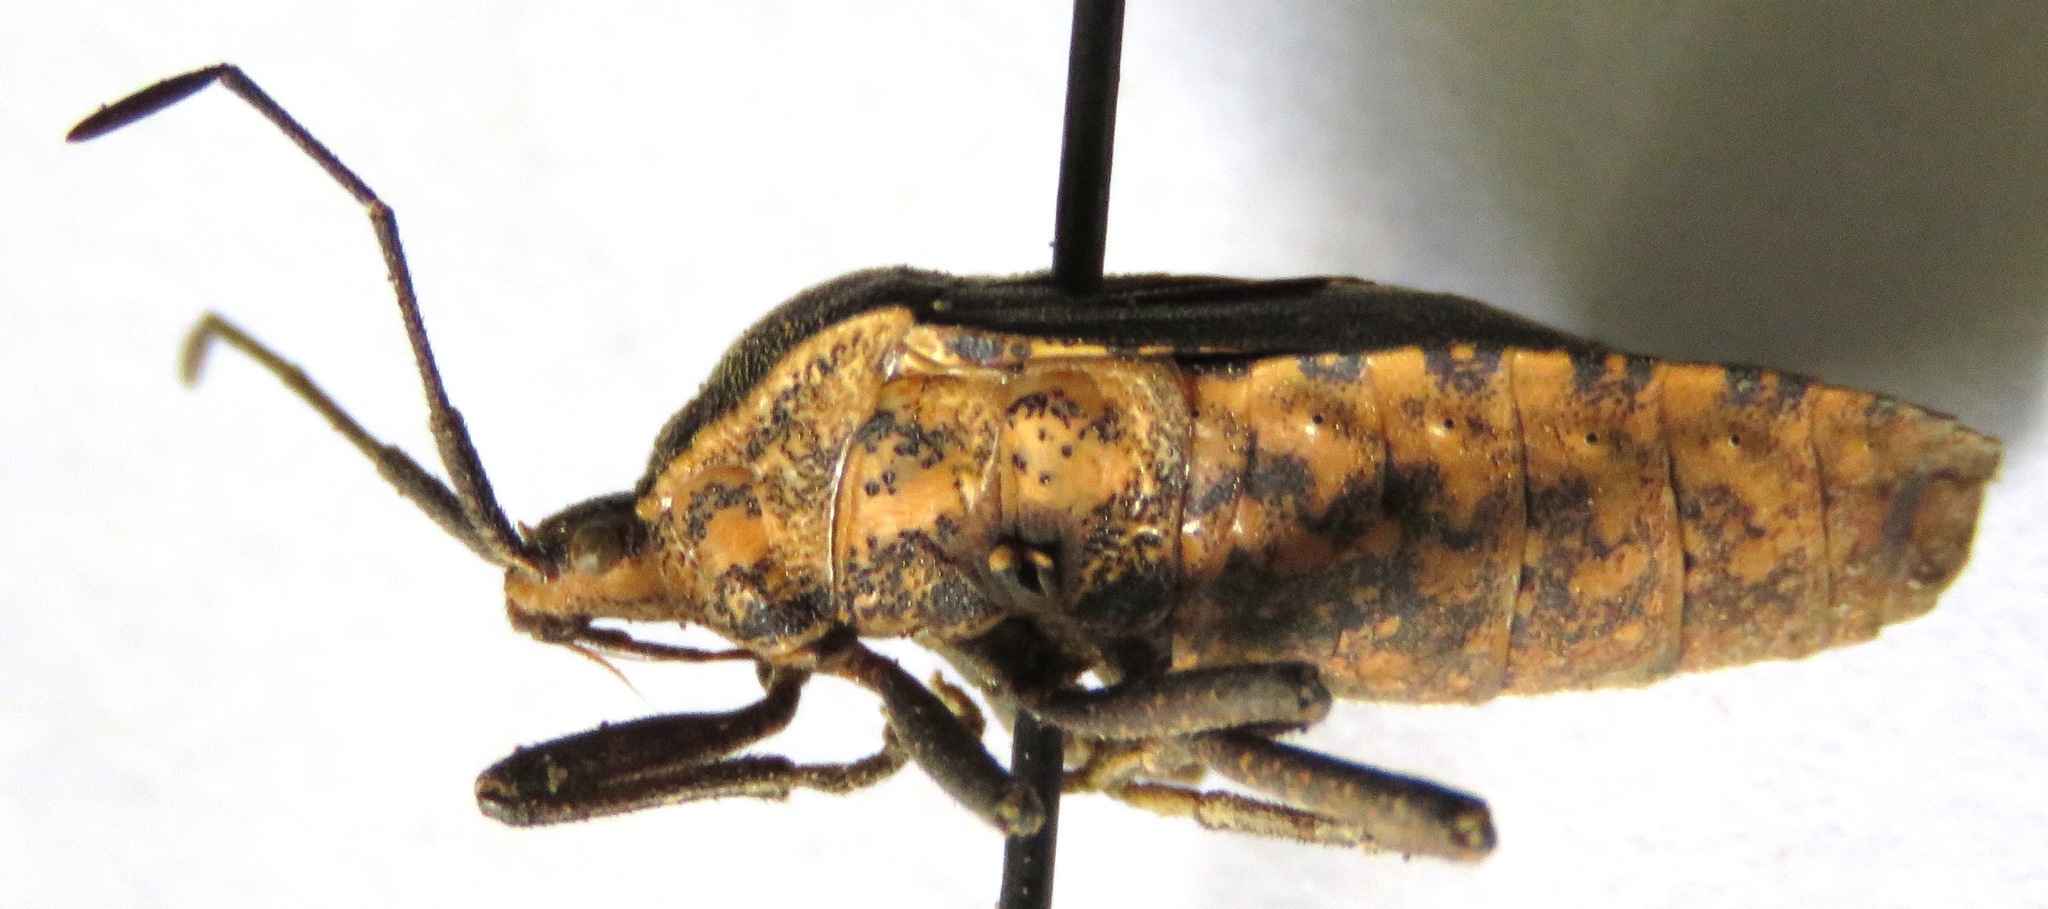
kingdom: Animalia
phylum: Arthropoda
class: Insecta
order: Hemiptera
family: Coreidae
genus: Cimolus
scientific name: Cimolus vitticeps
